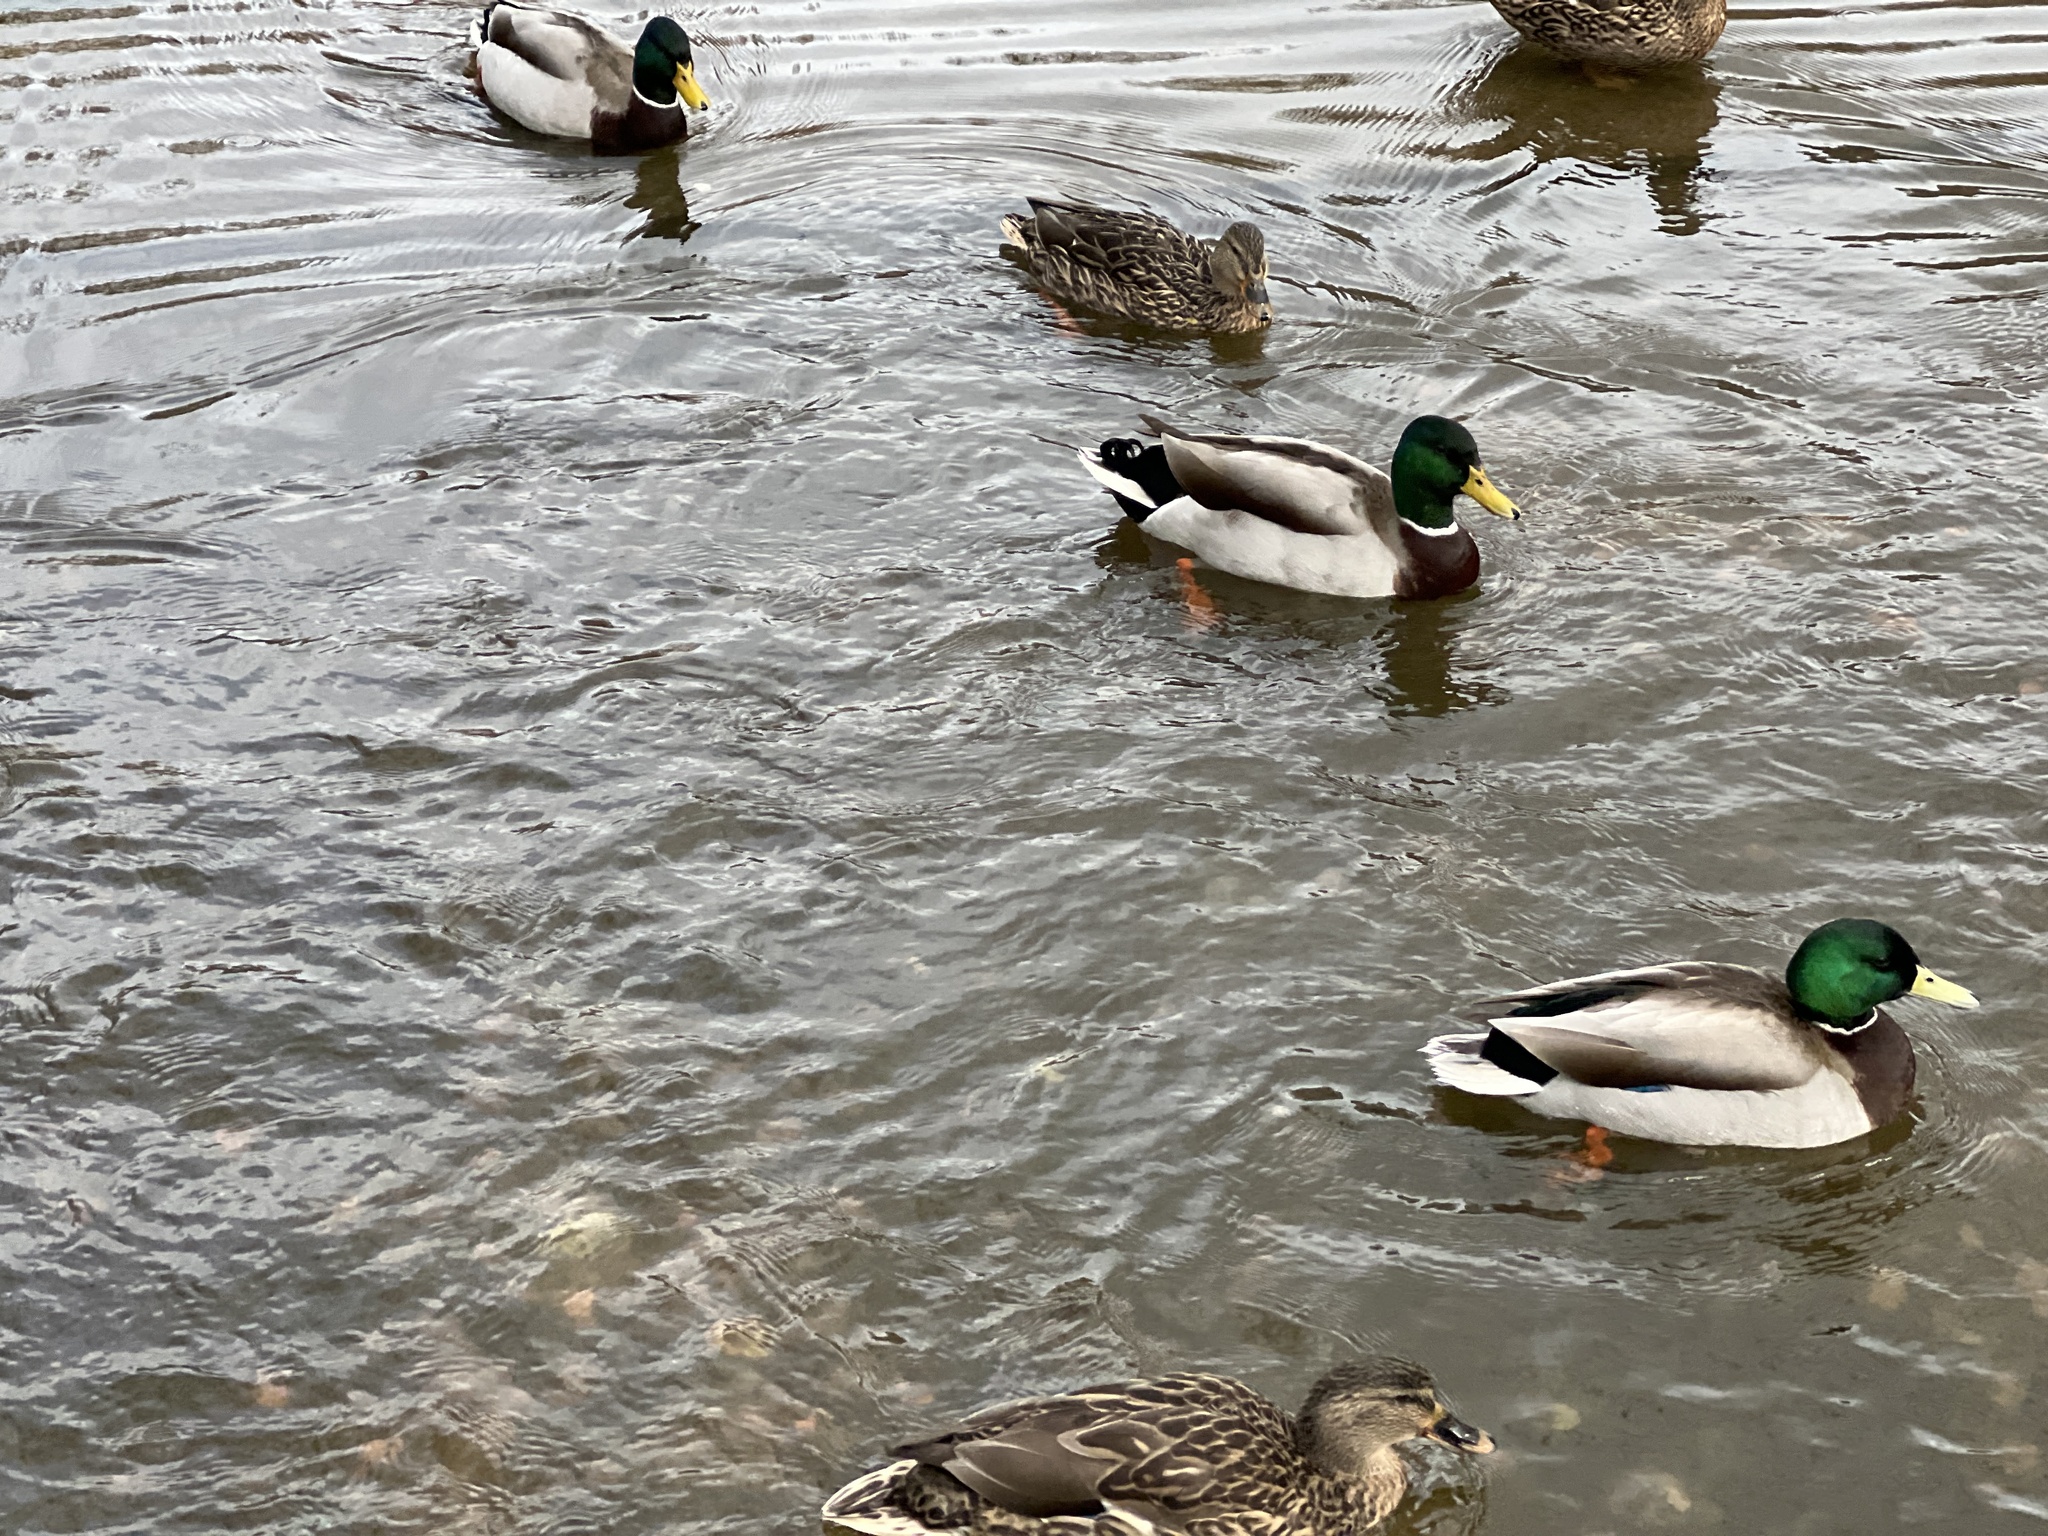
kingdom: Animalia
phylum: Chordata
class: Aves
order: Anseriformes
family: Anatidae
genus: Anas
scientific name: Anas platyrhynchos
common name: Mallard
